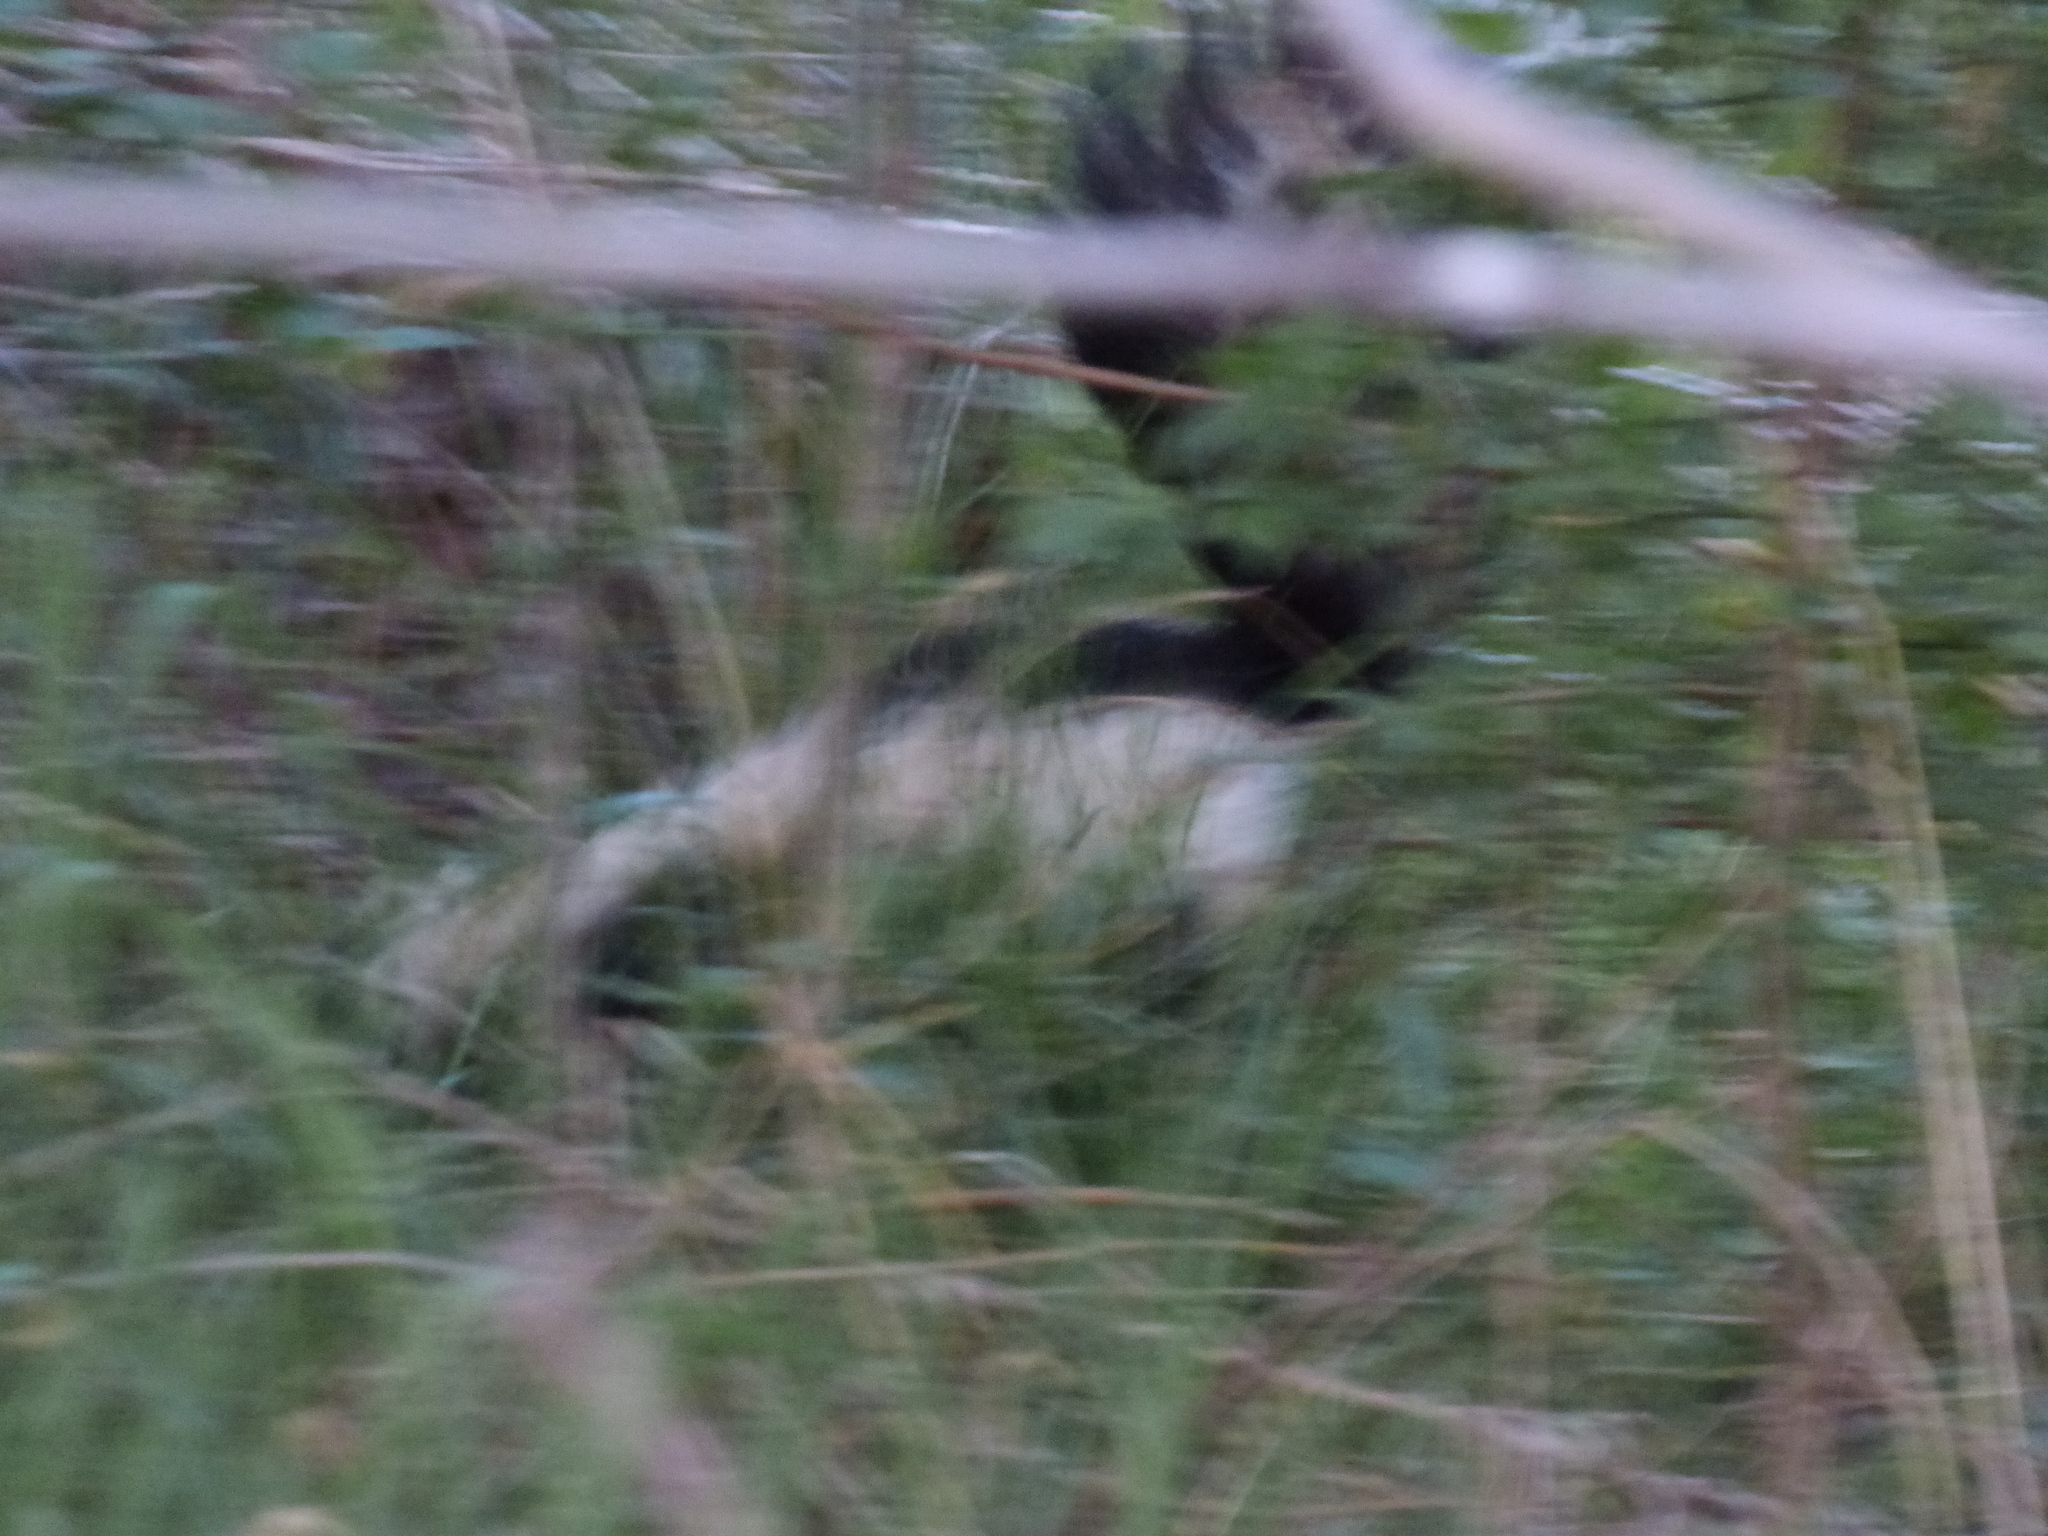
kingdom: Animalia
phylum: Chordata
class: Mammalia
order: Carnivora
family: Mephitidae
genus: Mephitis
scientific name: Mephitis mephitis
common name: Striped skunk
